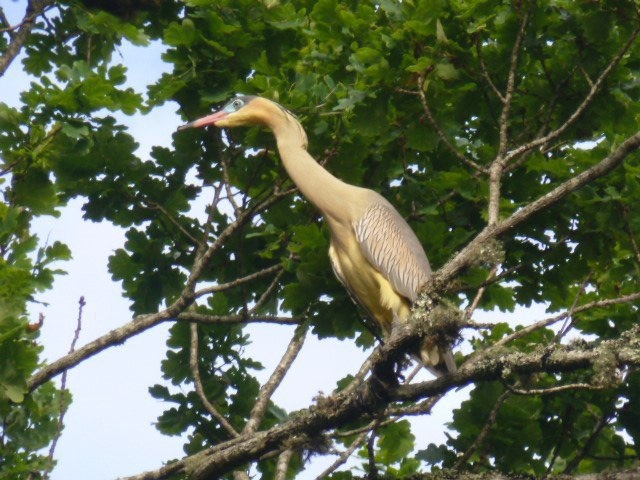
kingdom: Animalia
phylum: Chordata
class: Aves
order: Pelecaniformes
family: Ardeidae
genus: Syrigma
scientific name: Syrigma sibilatrix
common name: Whistling heron
